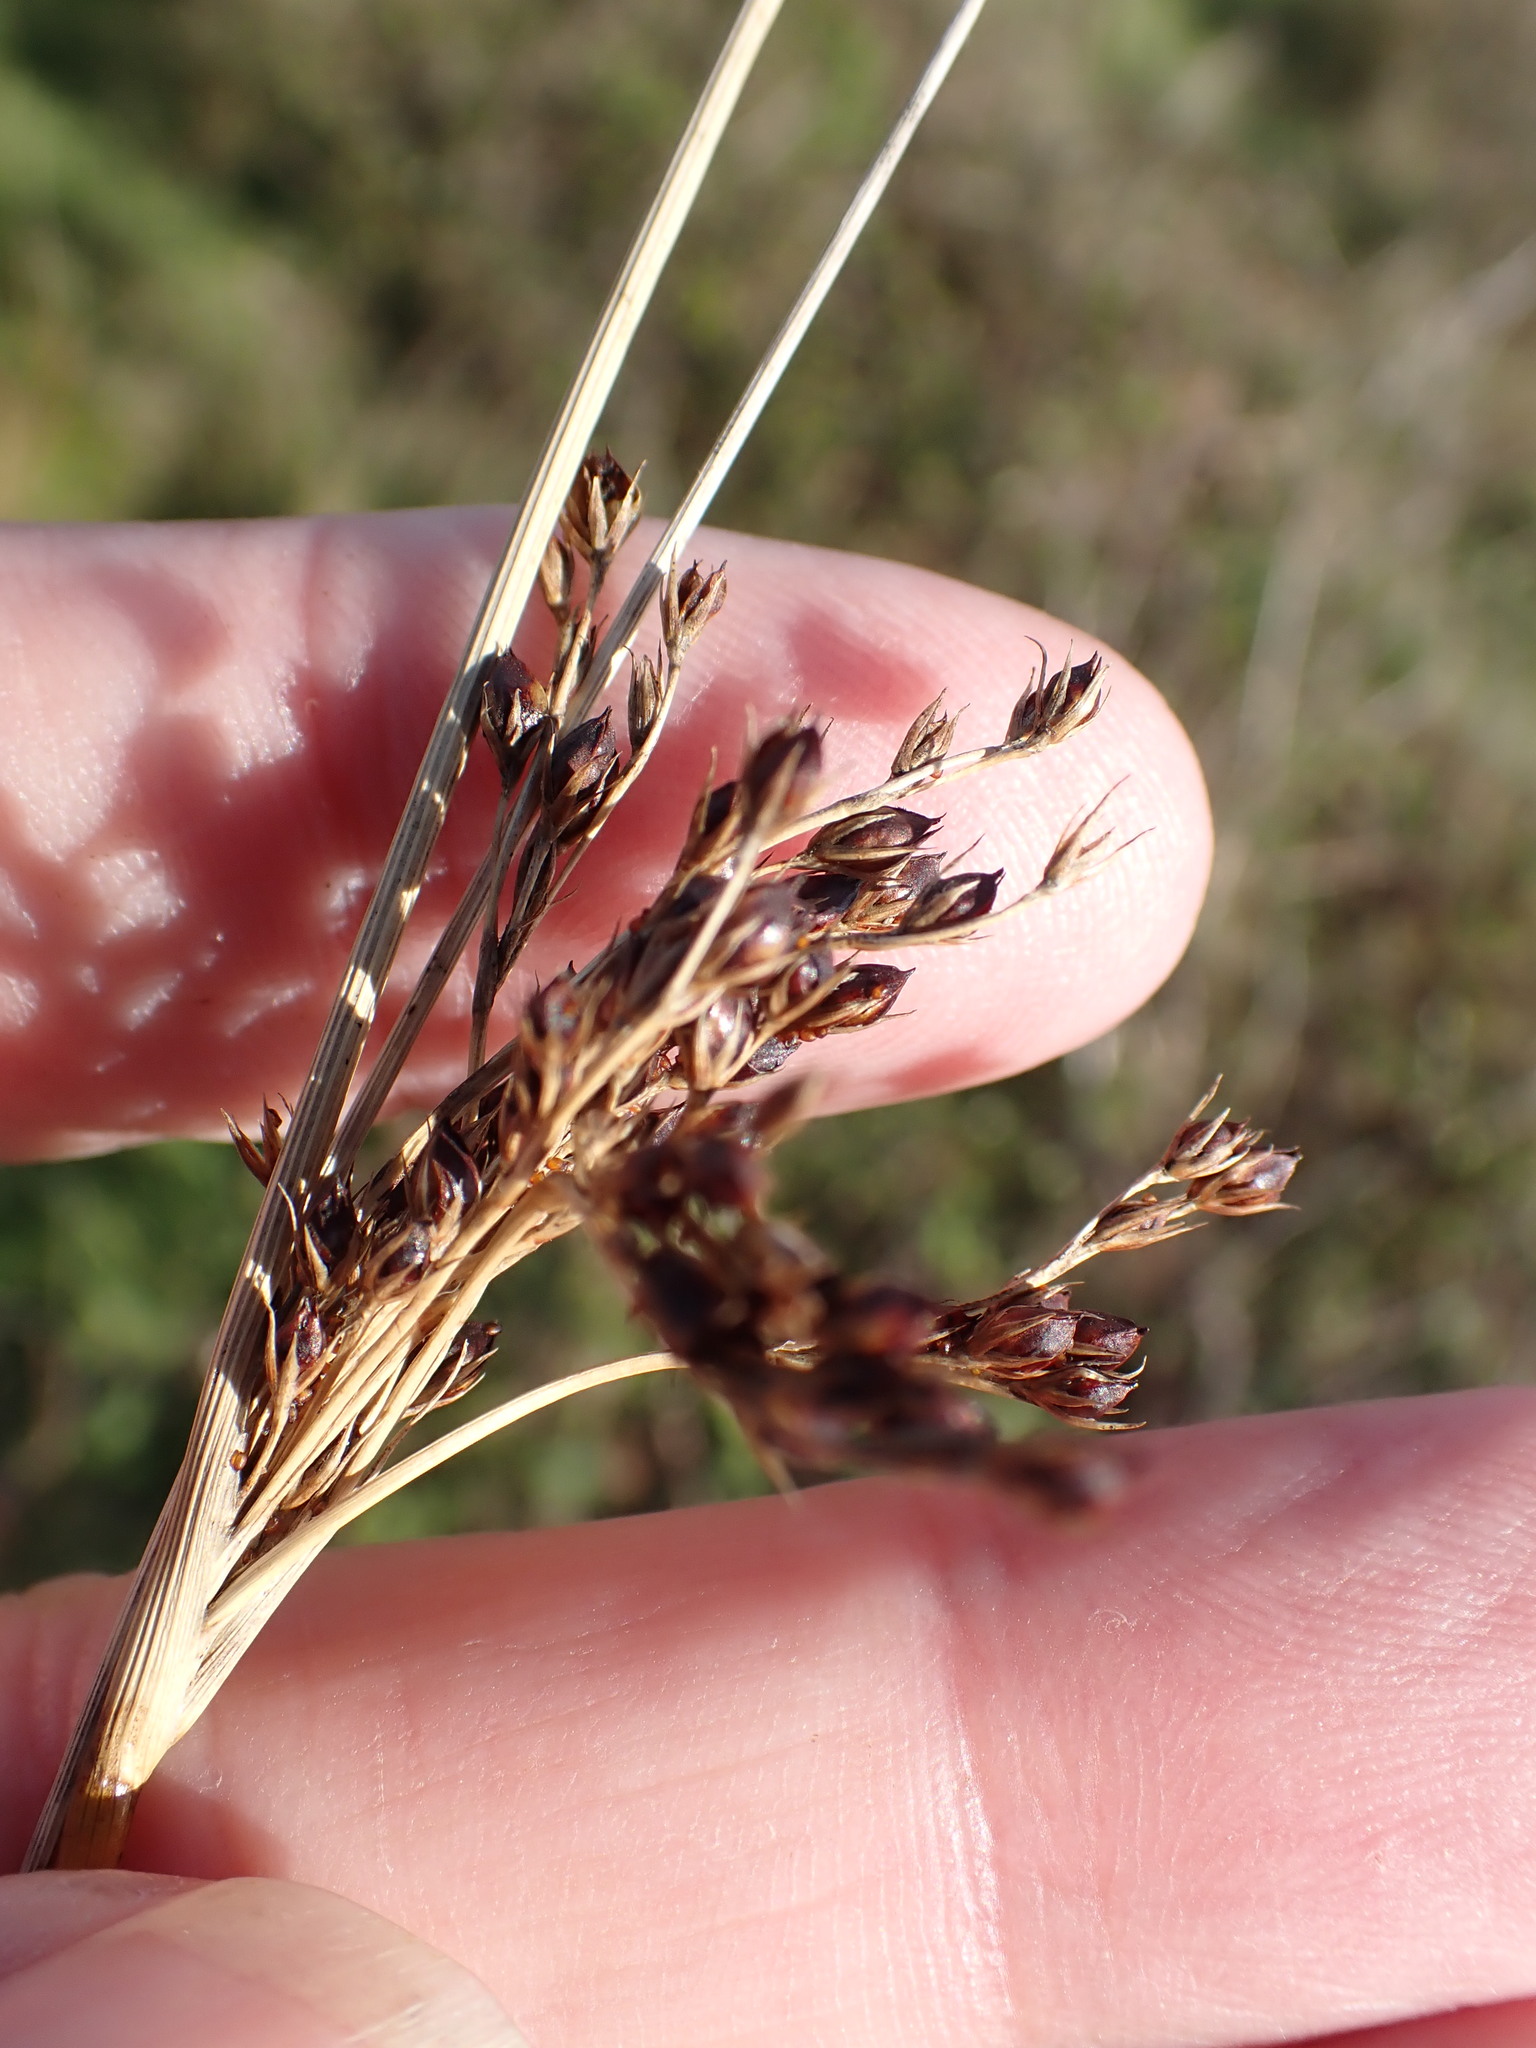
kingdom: Plantae
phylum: Tracheophyta
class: Liliopsida
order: Poales
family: Juncaceae
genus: Juncus
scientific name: Juncus inflexus
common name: Hard rush
